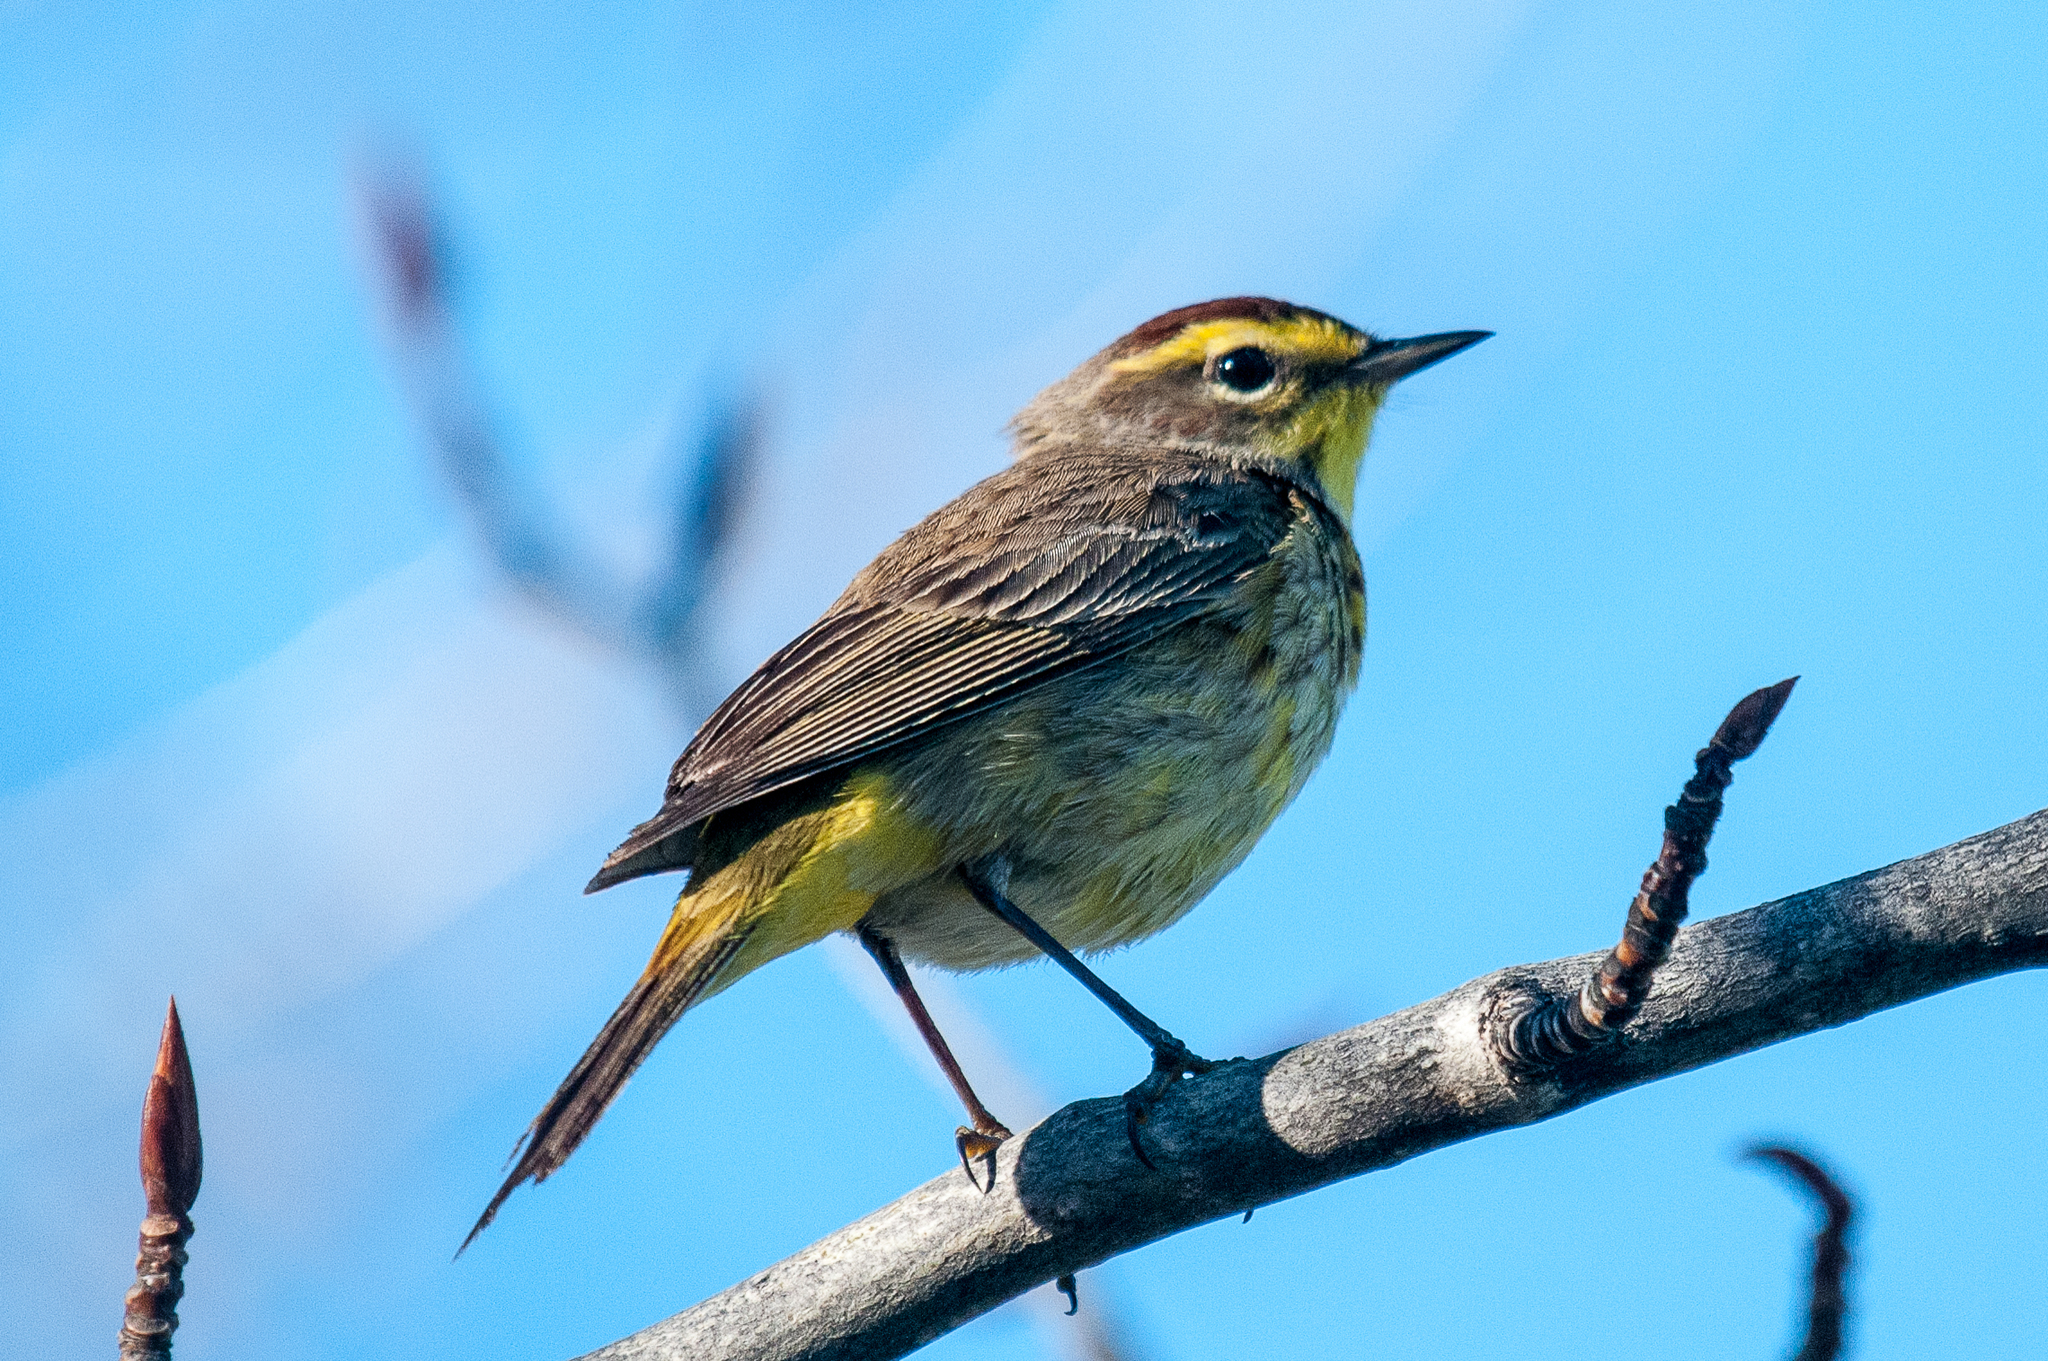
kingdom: Animalia
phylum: Chordata
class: Aves
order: Passeriformes
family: Parulidae
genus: Setophaga
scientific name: Setophaga palmarum
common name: Palm warbler
